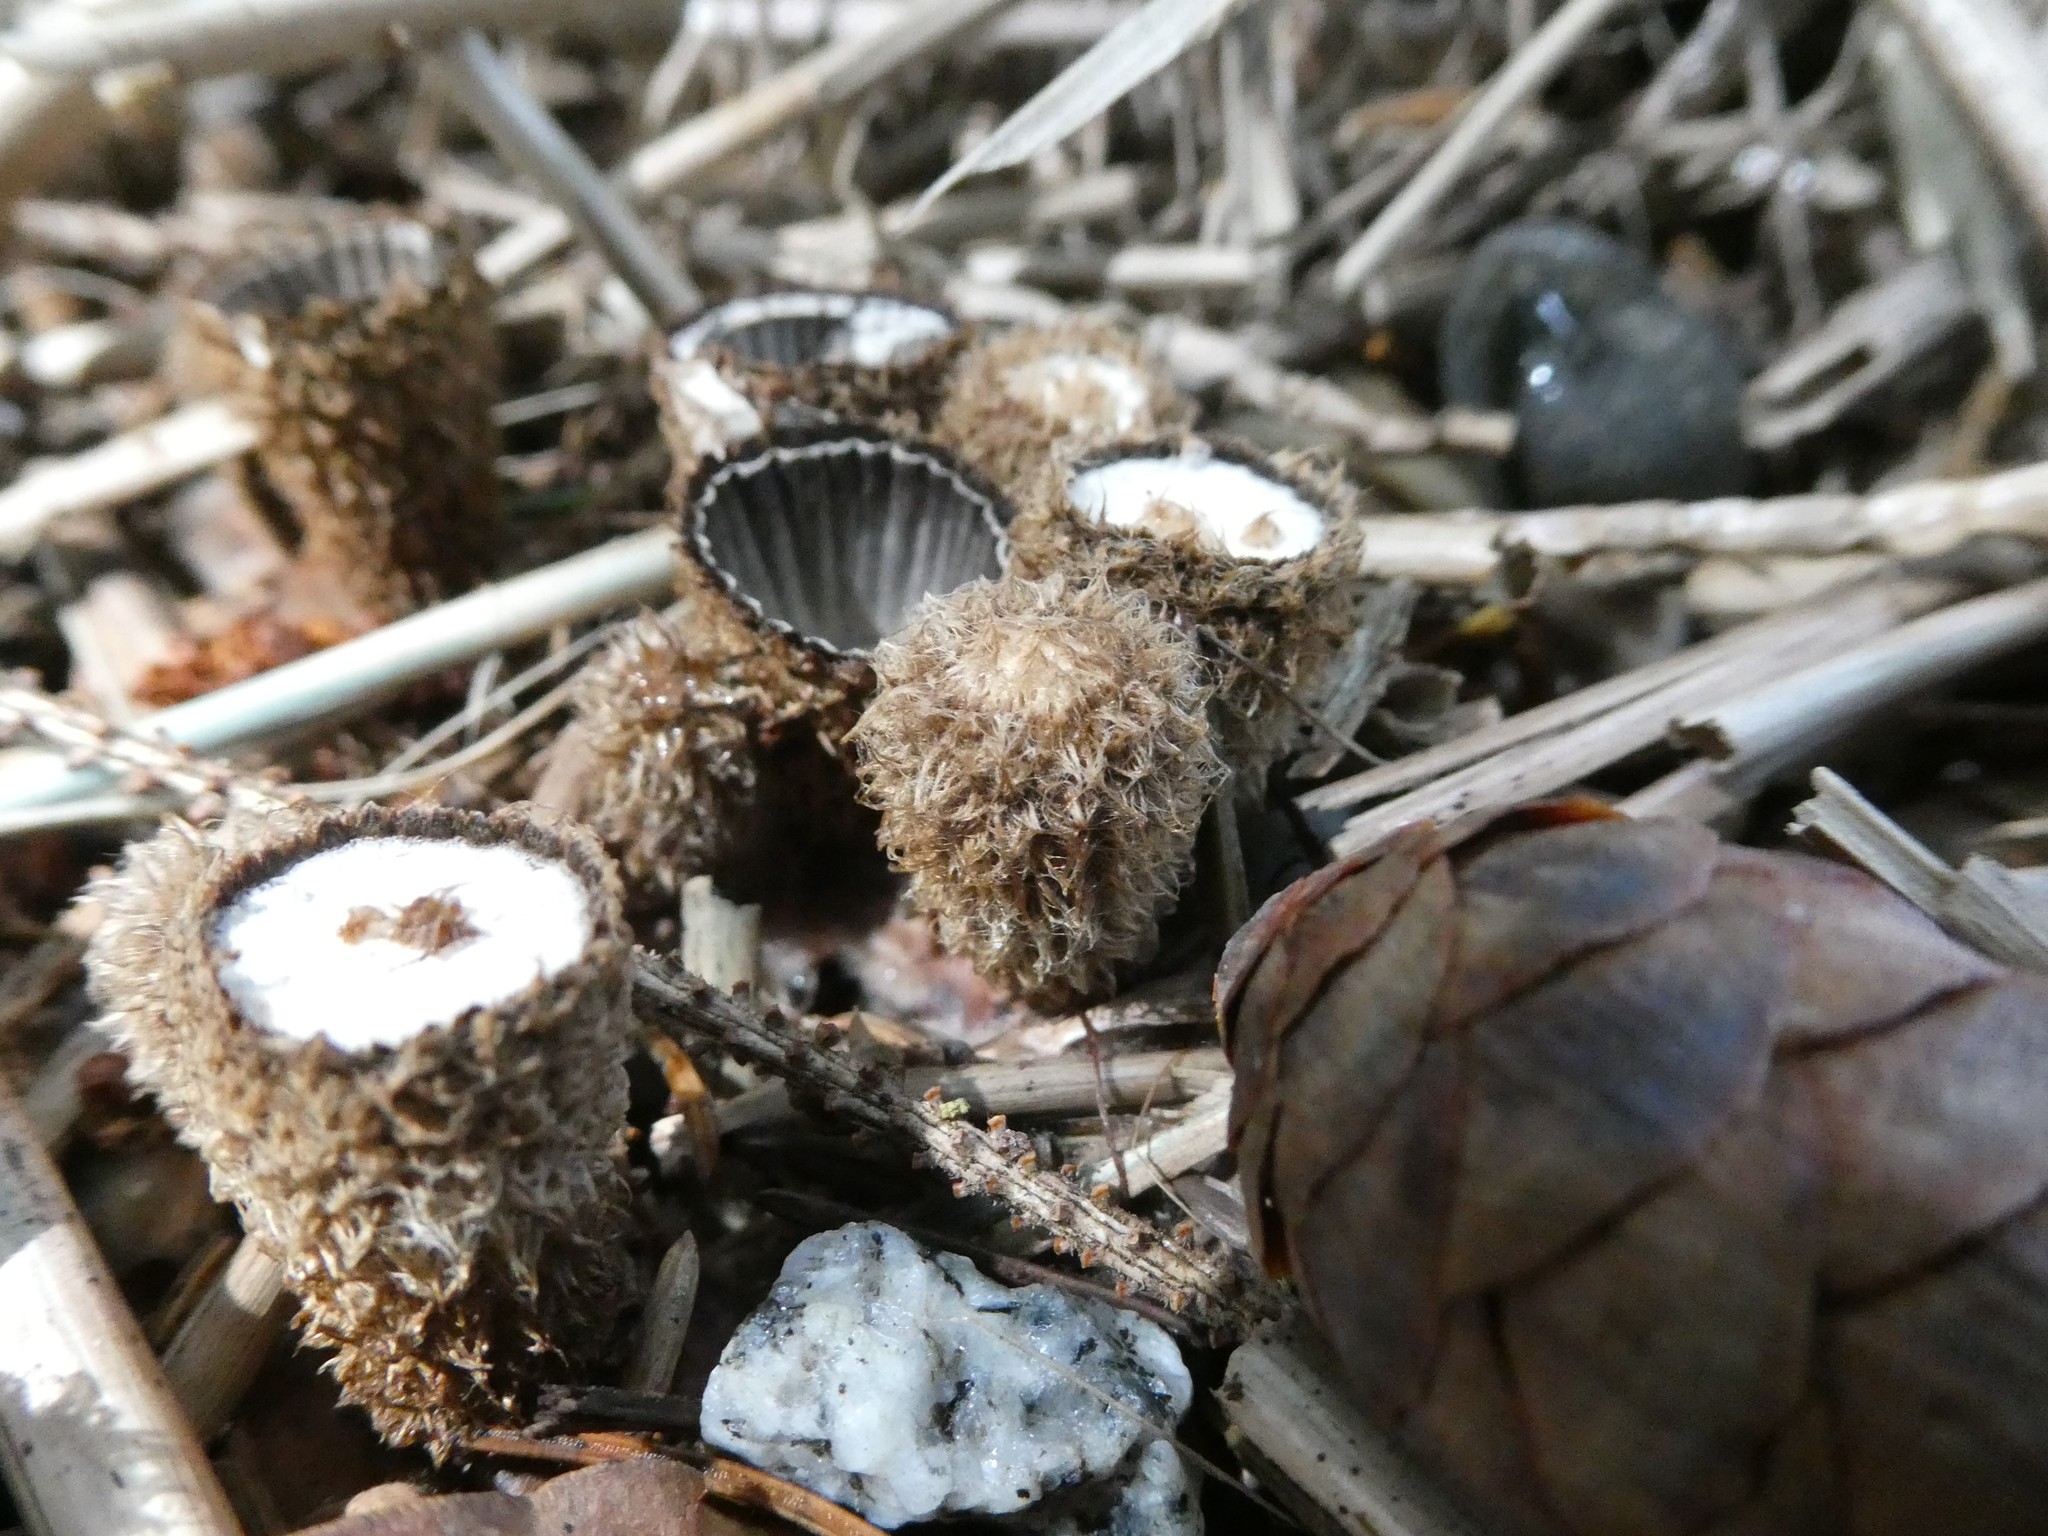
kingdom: Fungi
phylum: Basidiomycota
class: Agaricomycetes
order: Agaricales
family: Agaricaceae
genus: Cyathus
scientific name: Cyathus striatus
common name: Fluted bird's nest
